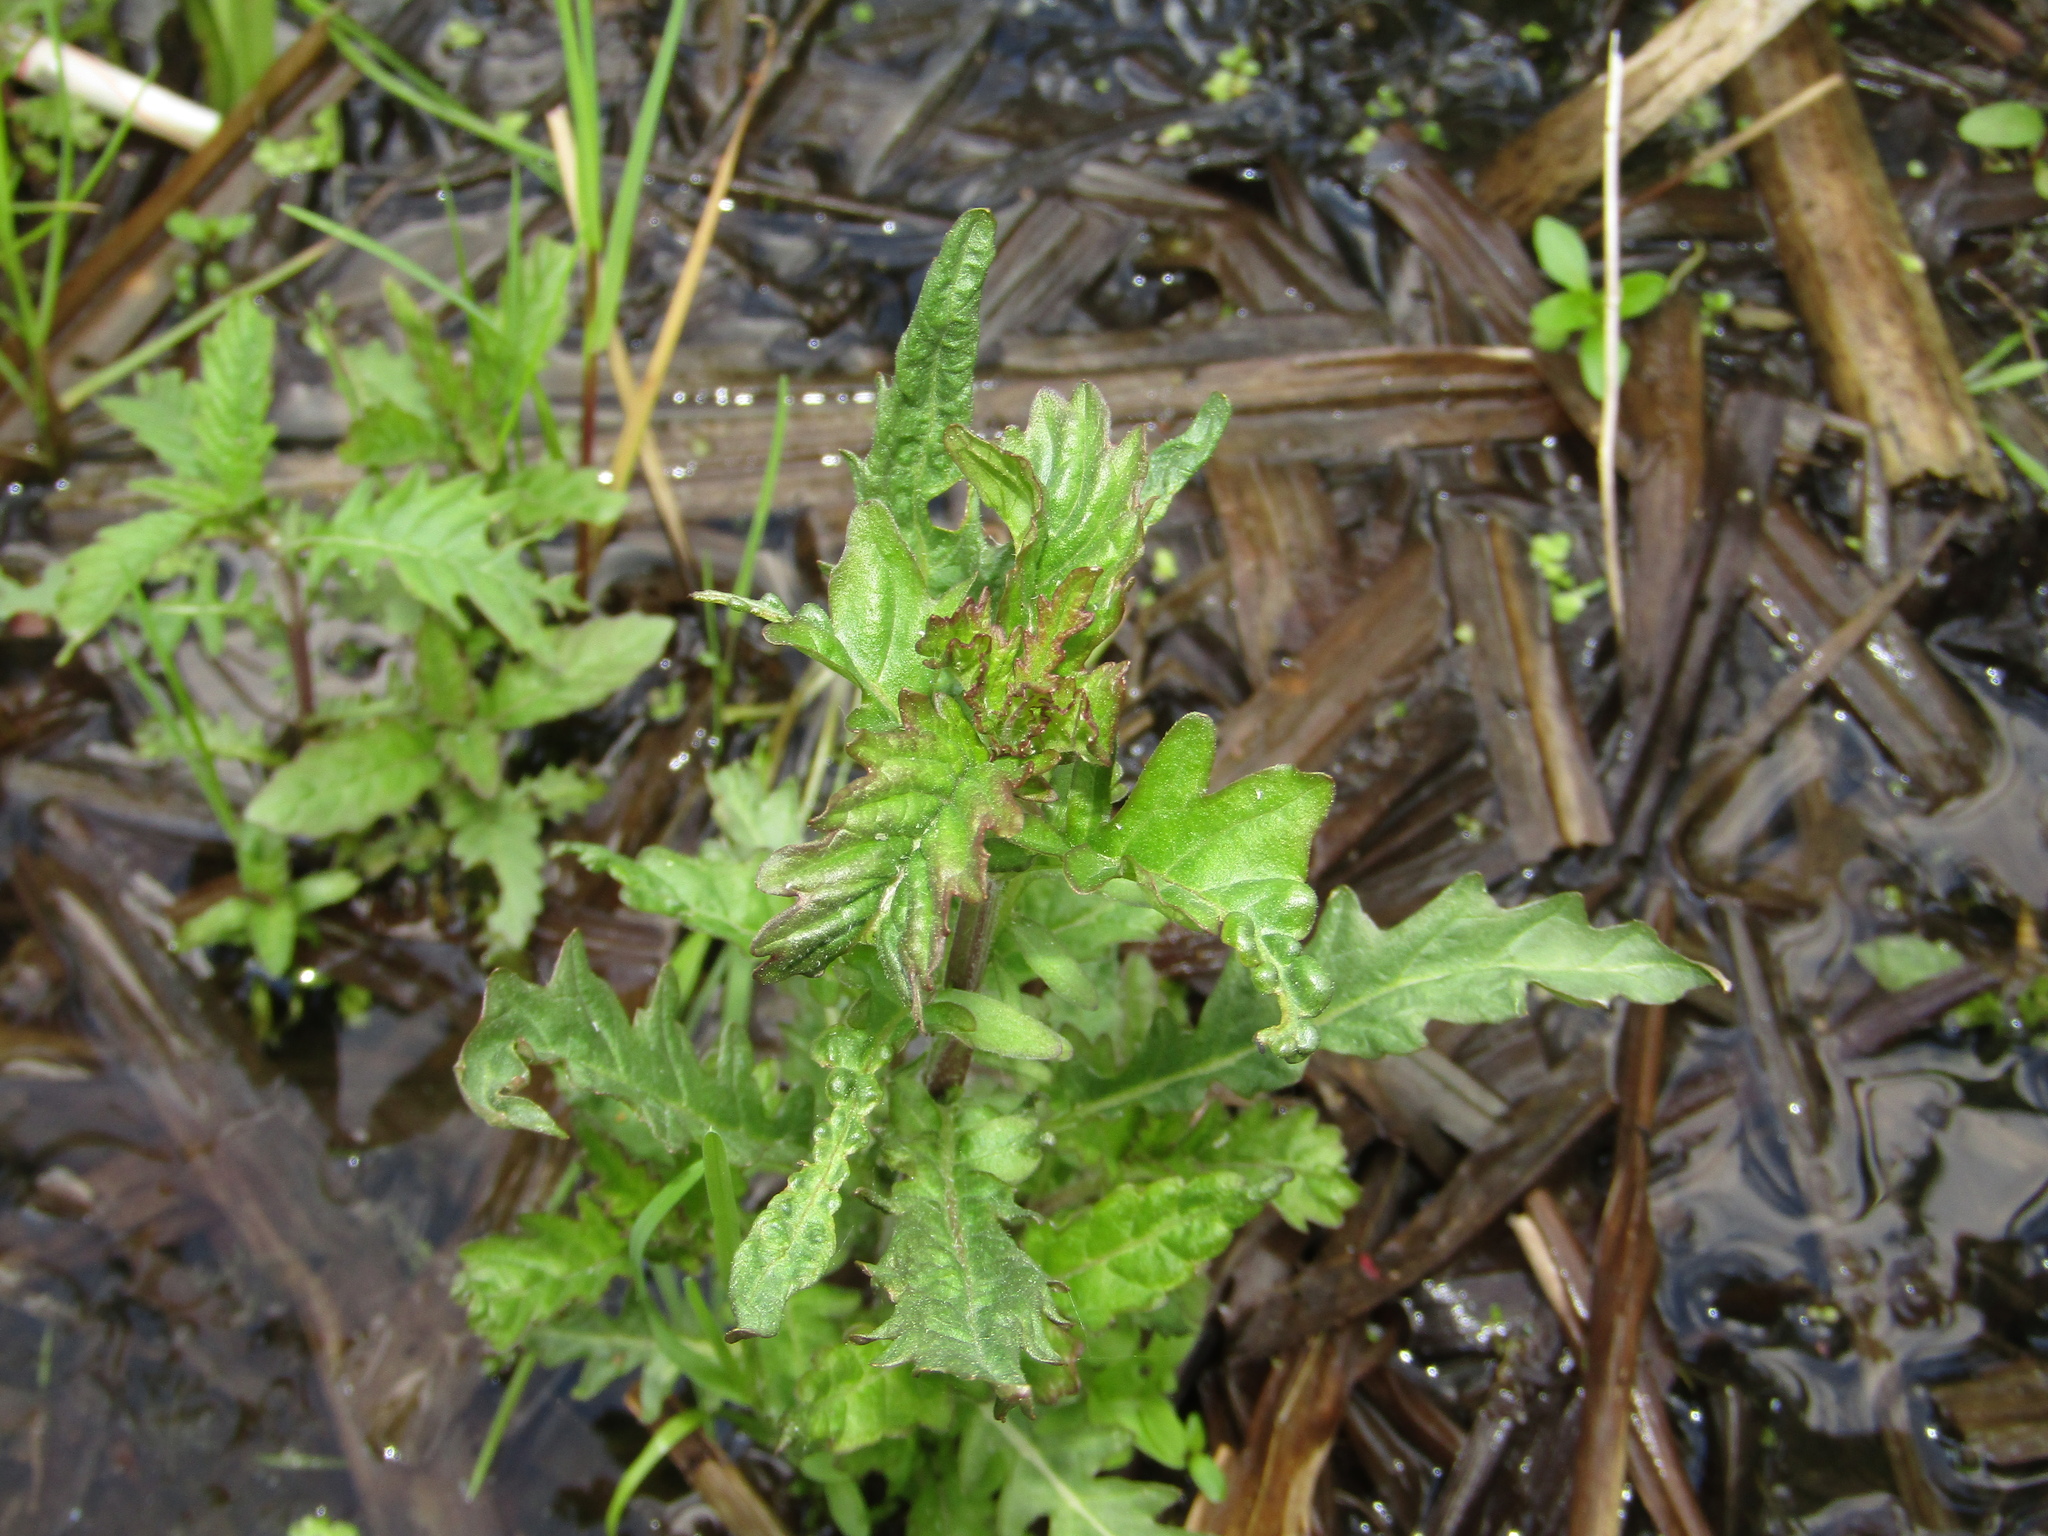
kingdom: Plantae
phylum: Tracheophyta
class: Magnoliopsida
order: Lamiales
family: Lamiaceae
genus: Lycopus
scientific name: Lycopus europaeus
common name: European bugleweed
